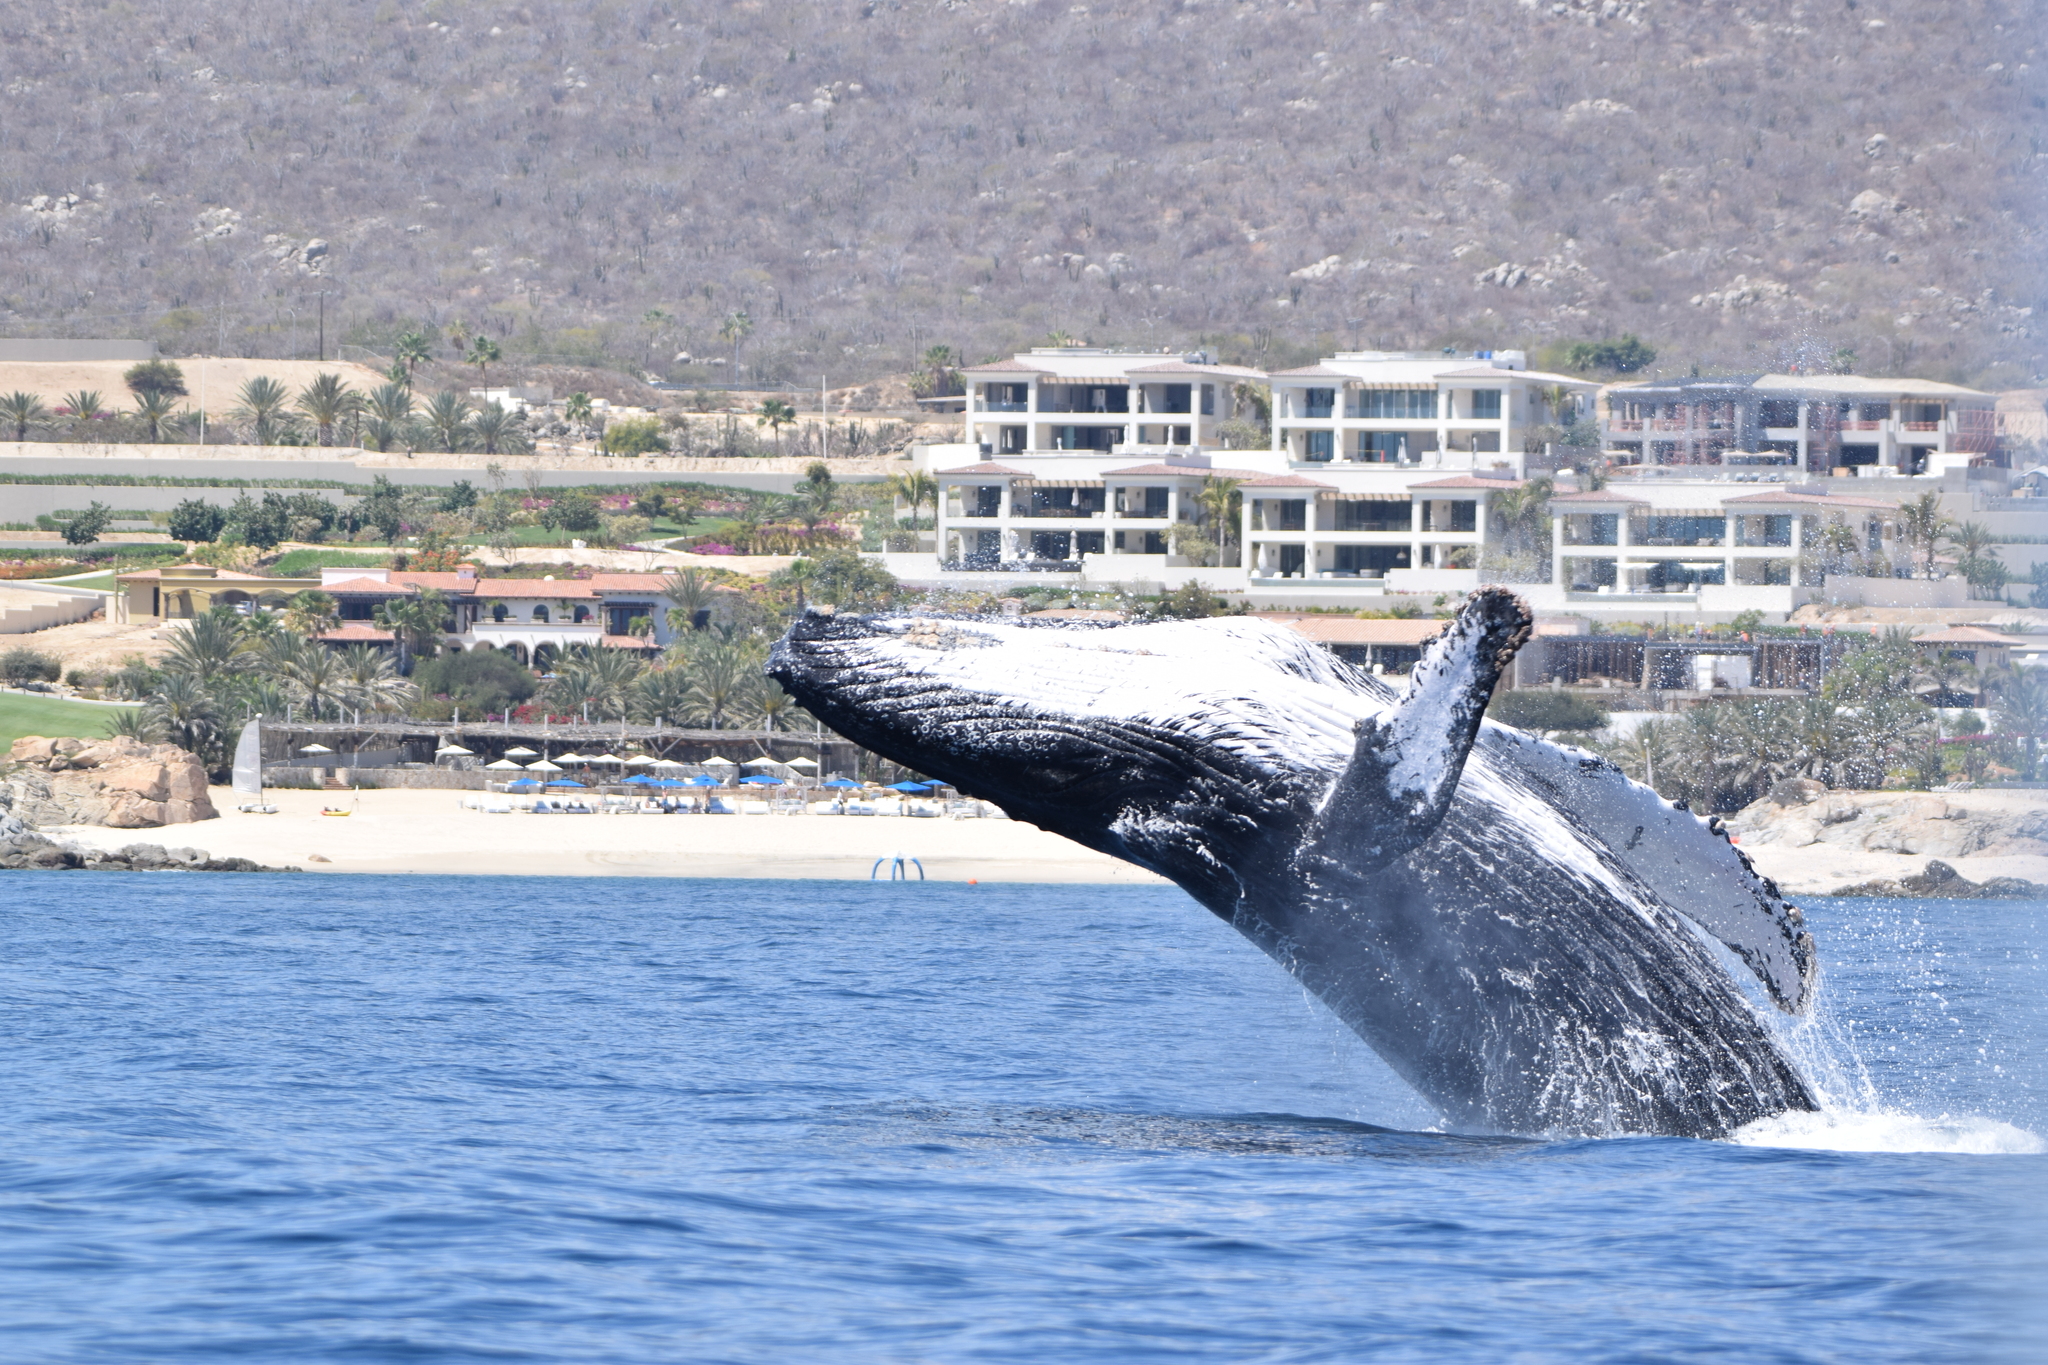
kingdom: Animalia
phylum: Chordata
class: Mammalia
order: Cetacea
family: Balaenopteridae
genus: Megaptera
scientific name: Megaptera novaeangliae
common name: Humpback whale
